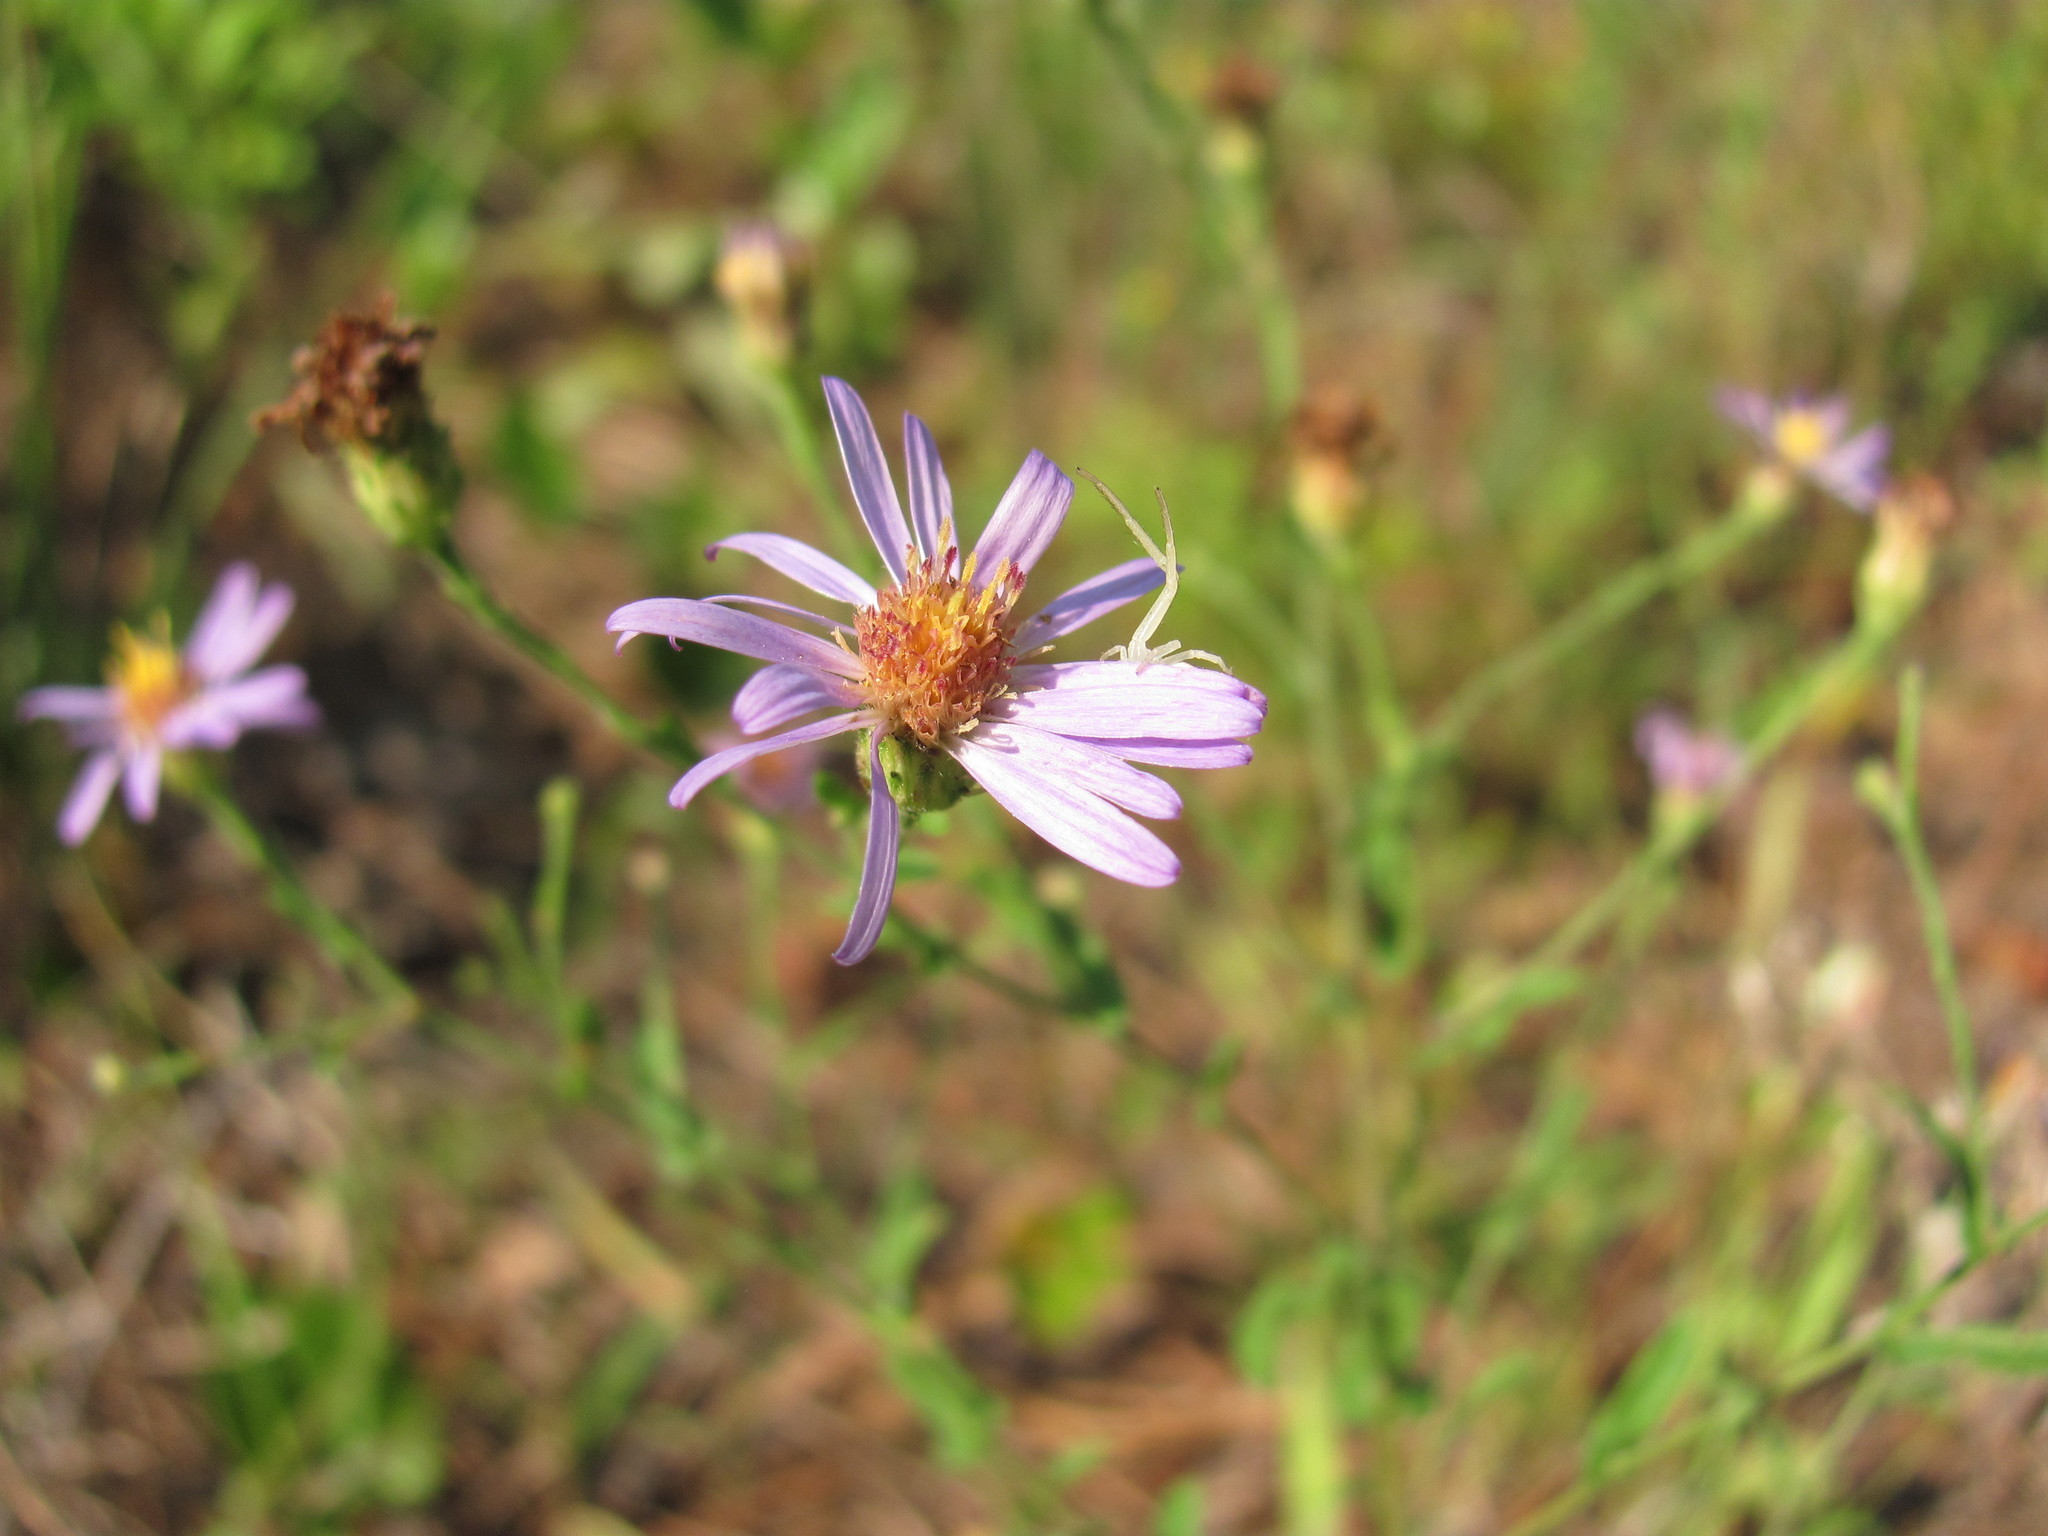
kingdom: Plantae
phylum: Tracheophyta
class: Magnoliopsida
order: Asterales
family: Asteraceae
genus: Symphyotrichum
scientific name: Symphyotrichum patens
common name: Late purple aster
